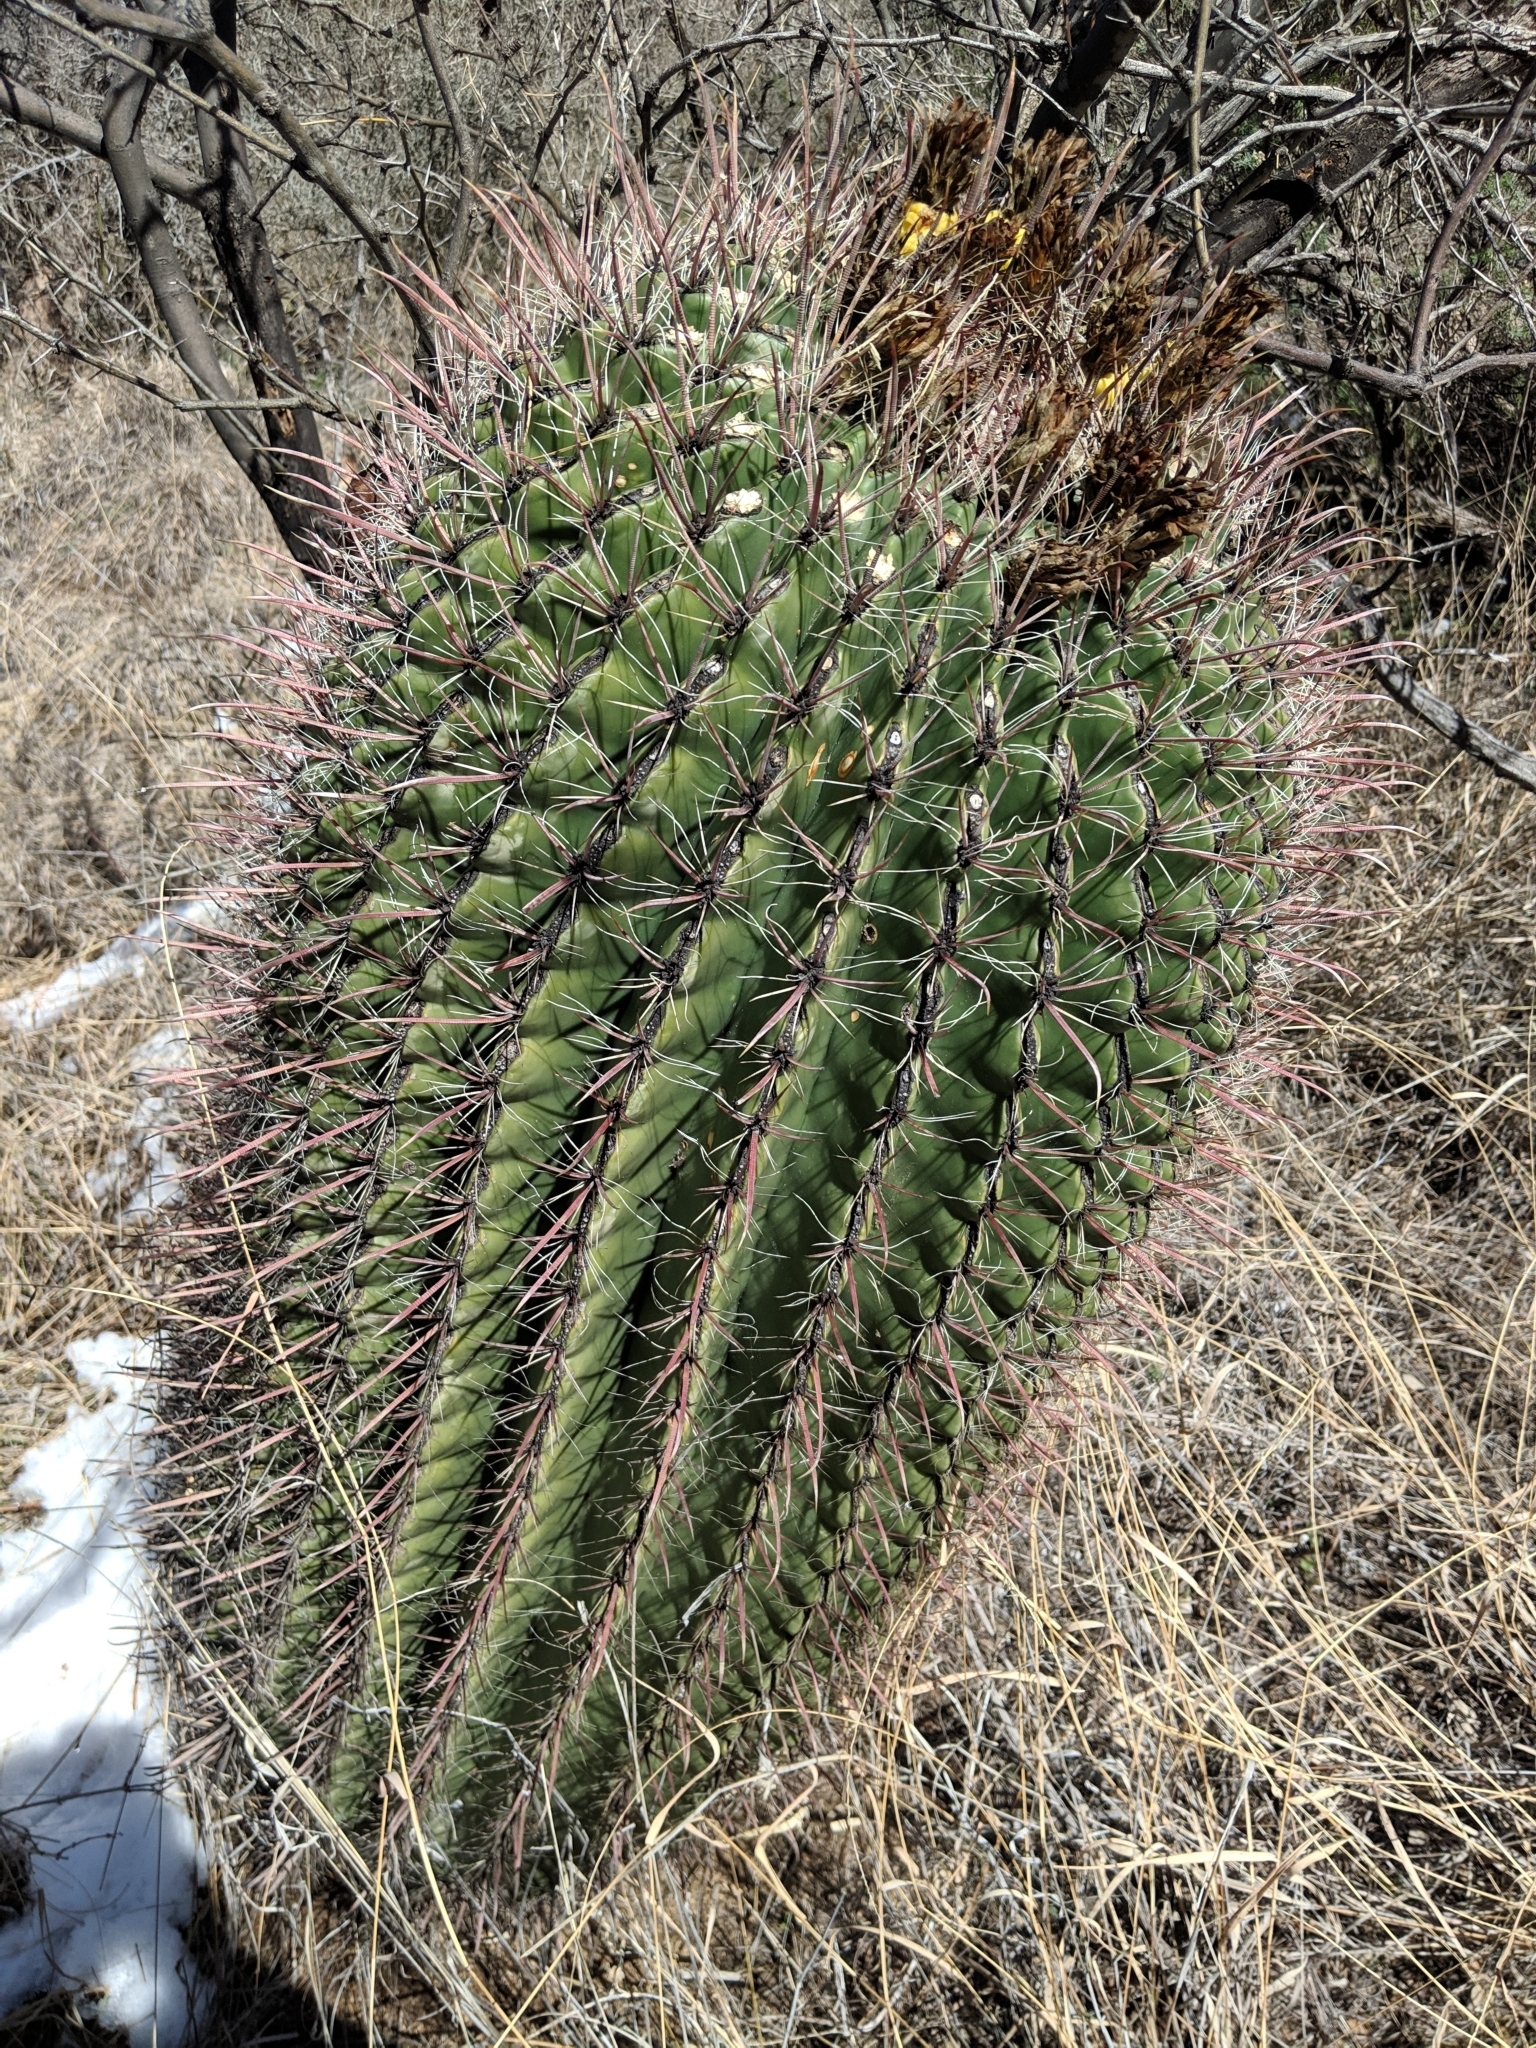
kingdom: Plantae
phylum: Tracheophyta
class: Magnoliopsida
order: Caryophyllales
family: Cactaceae
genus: Ferocactus
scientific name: Ferocactus wislizeni
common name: Candy barrel cactus
